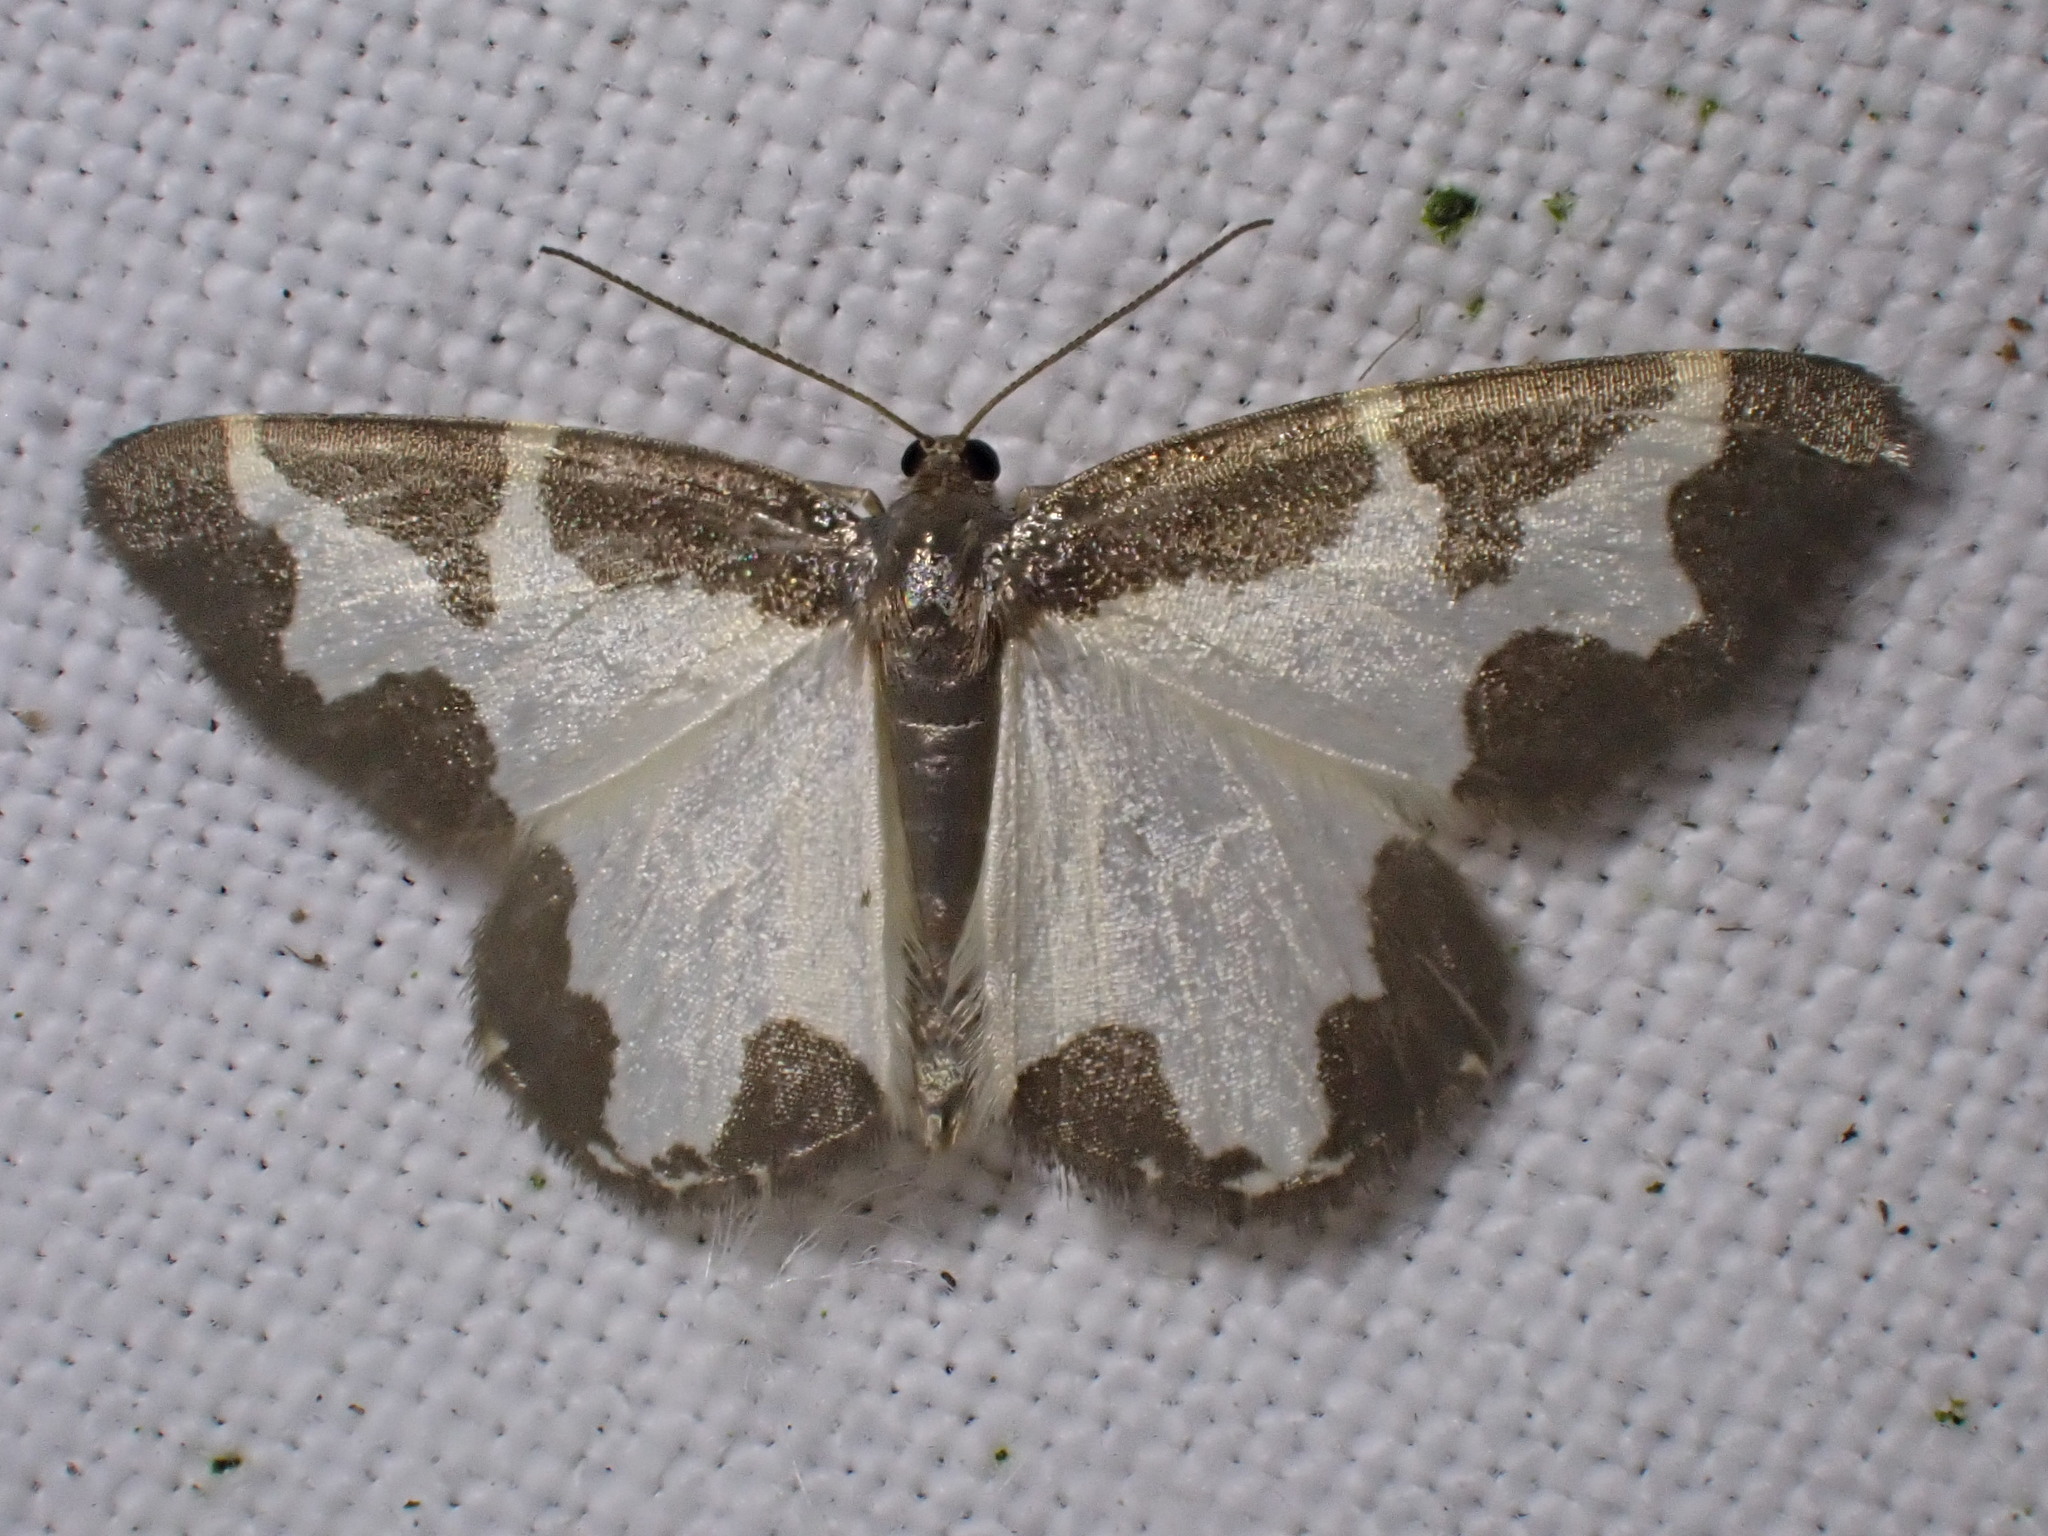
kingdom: Animalia
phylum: Arthropoda
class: Insecta
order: Lepidoptera
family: Geometridae
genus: Lomaspilis
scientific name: Lomaspilis marginata
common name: Clouded border
